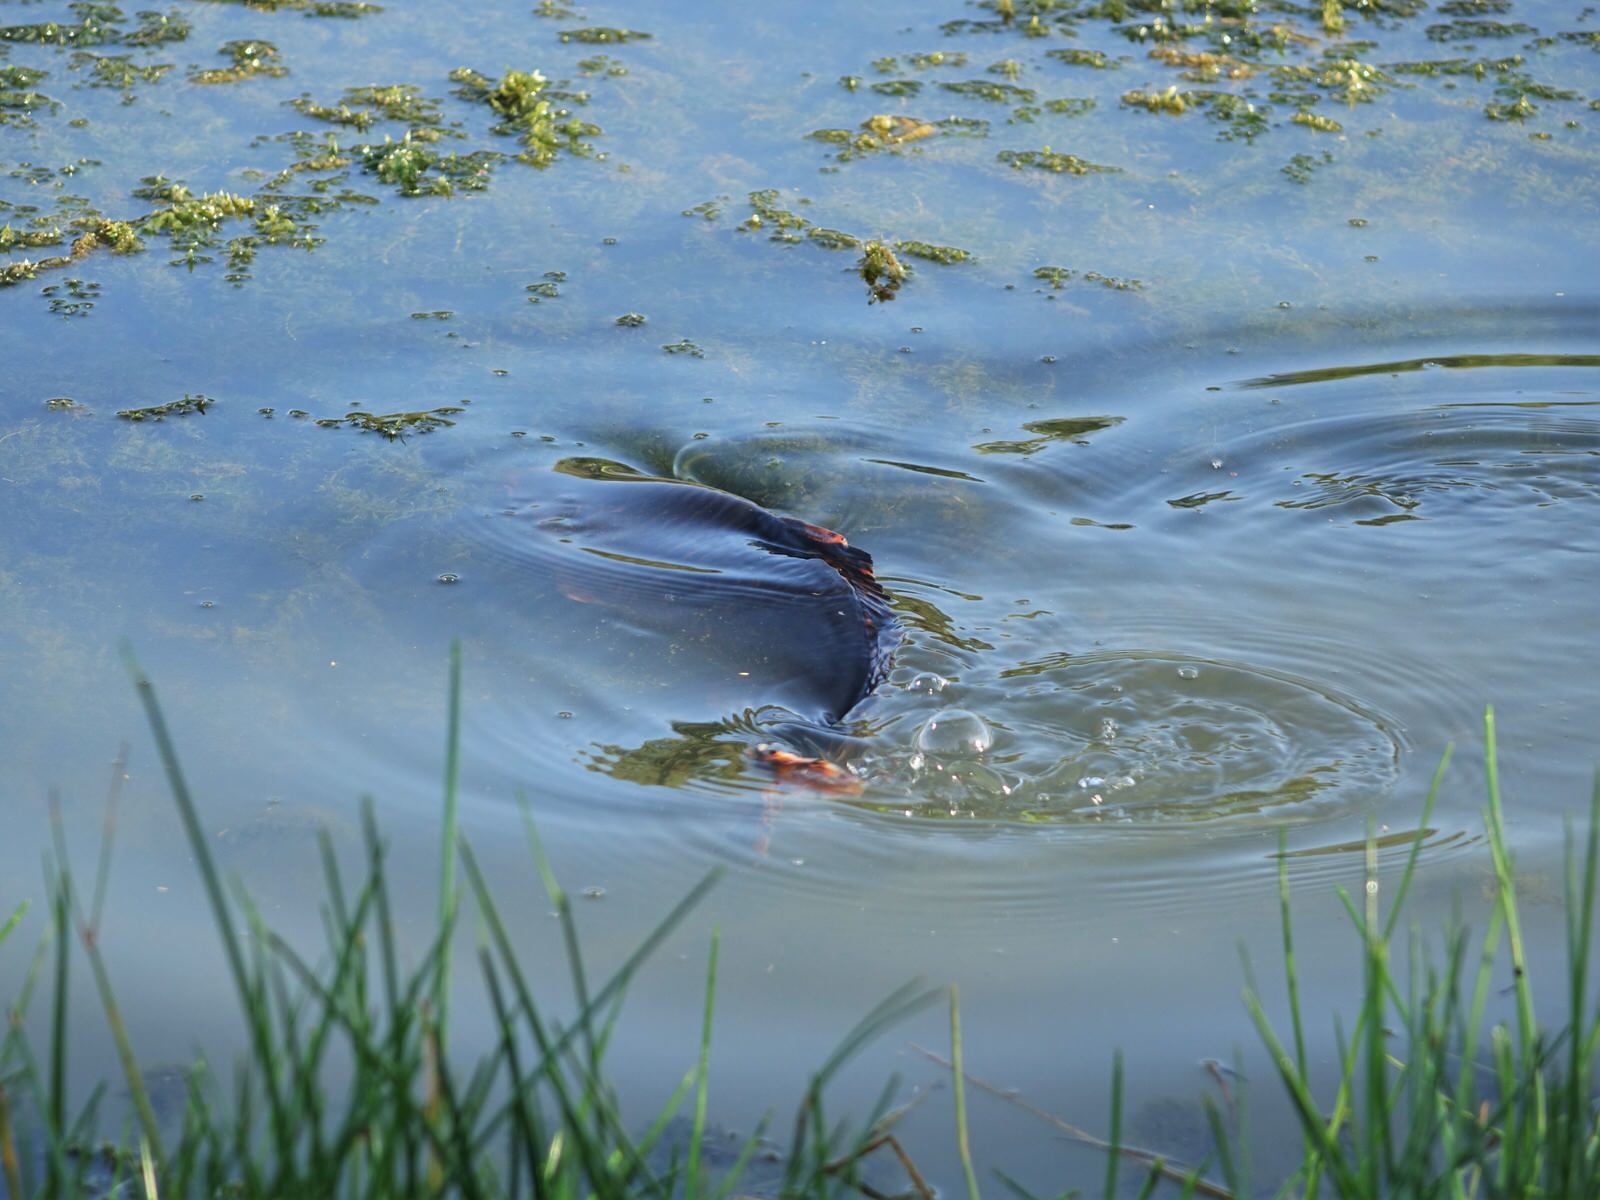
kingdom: Animalia
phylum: Chordata
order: Cypriniformes
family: Cyprinidae
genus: Cyprinus
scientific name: Cyprinus rubrofuscus
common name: Koi
